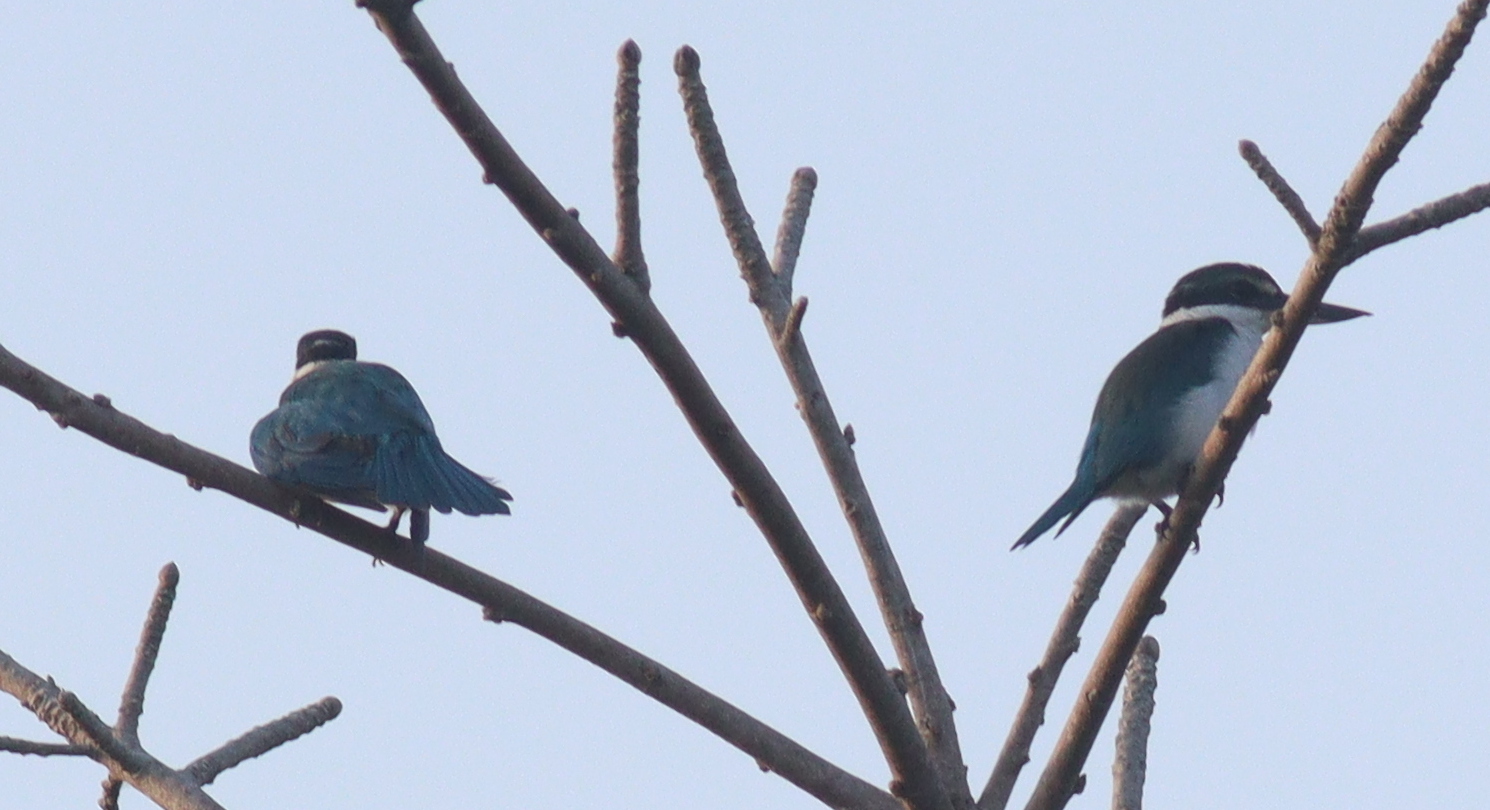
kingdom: Animalia
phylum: Chordata
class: Aves
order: Coraciiformes
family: Alcedinidae
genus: Todiramphus
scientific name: Todiramphus chloris
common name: Collared kingfisher
